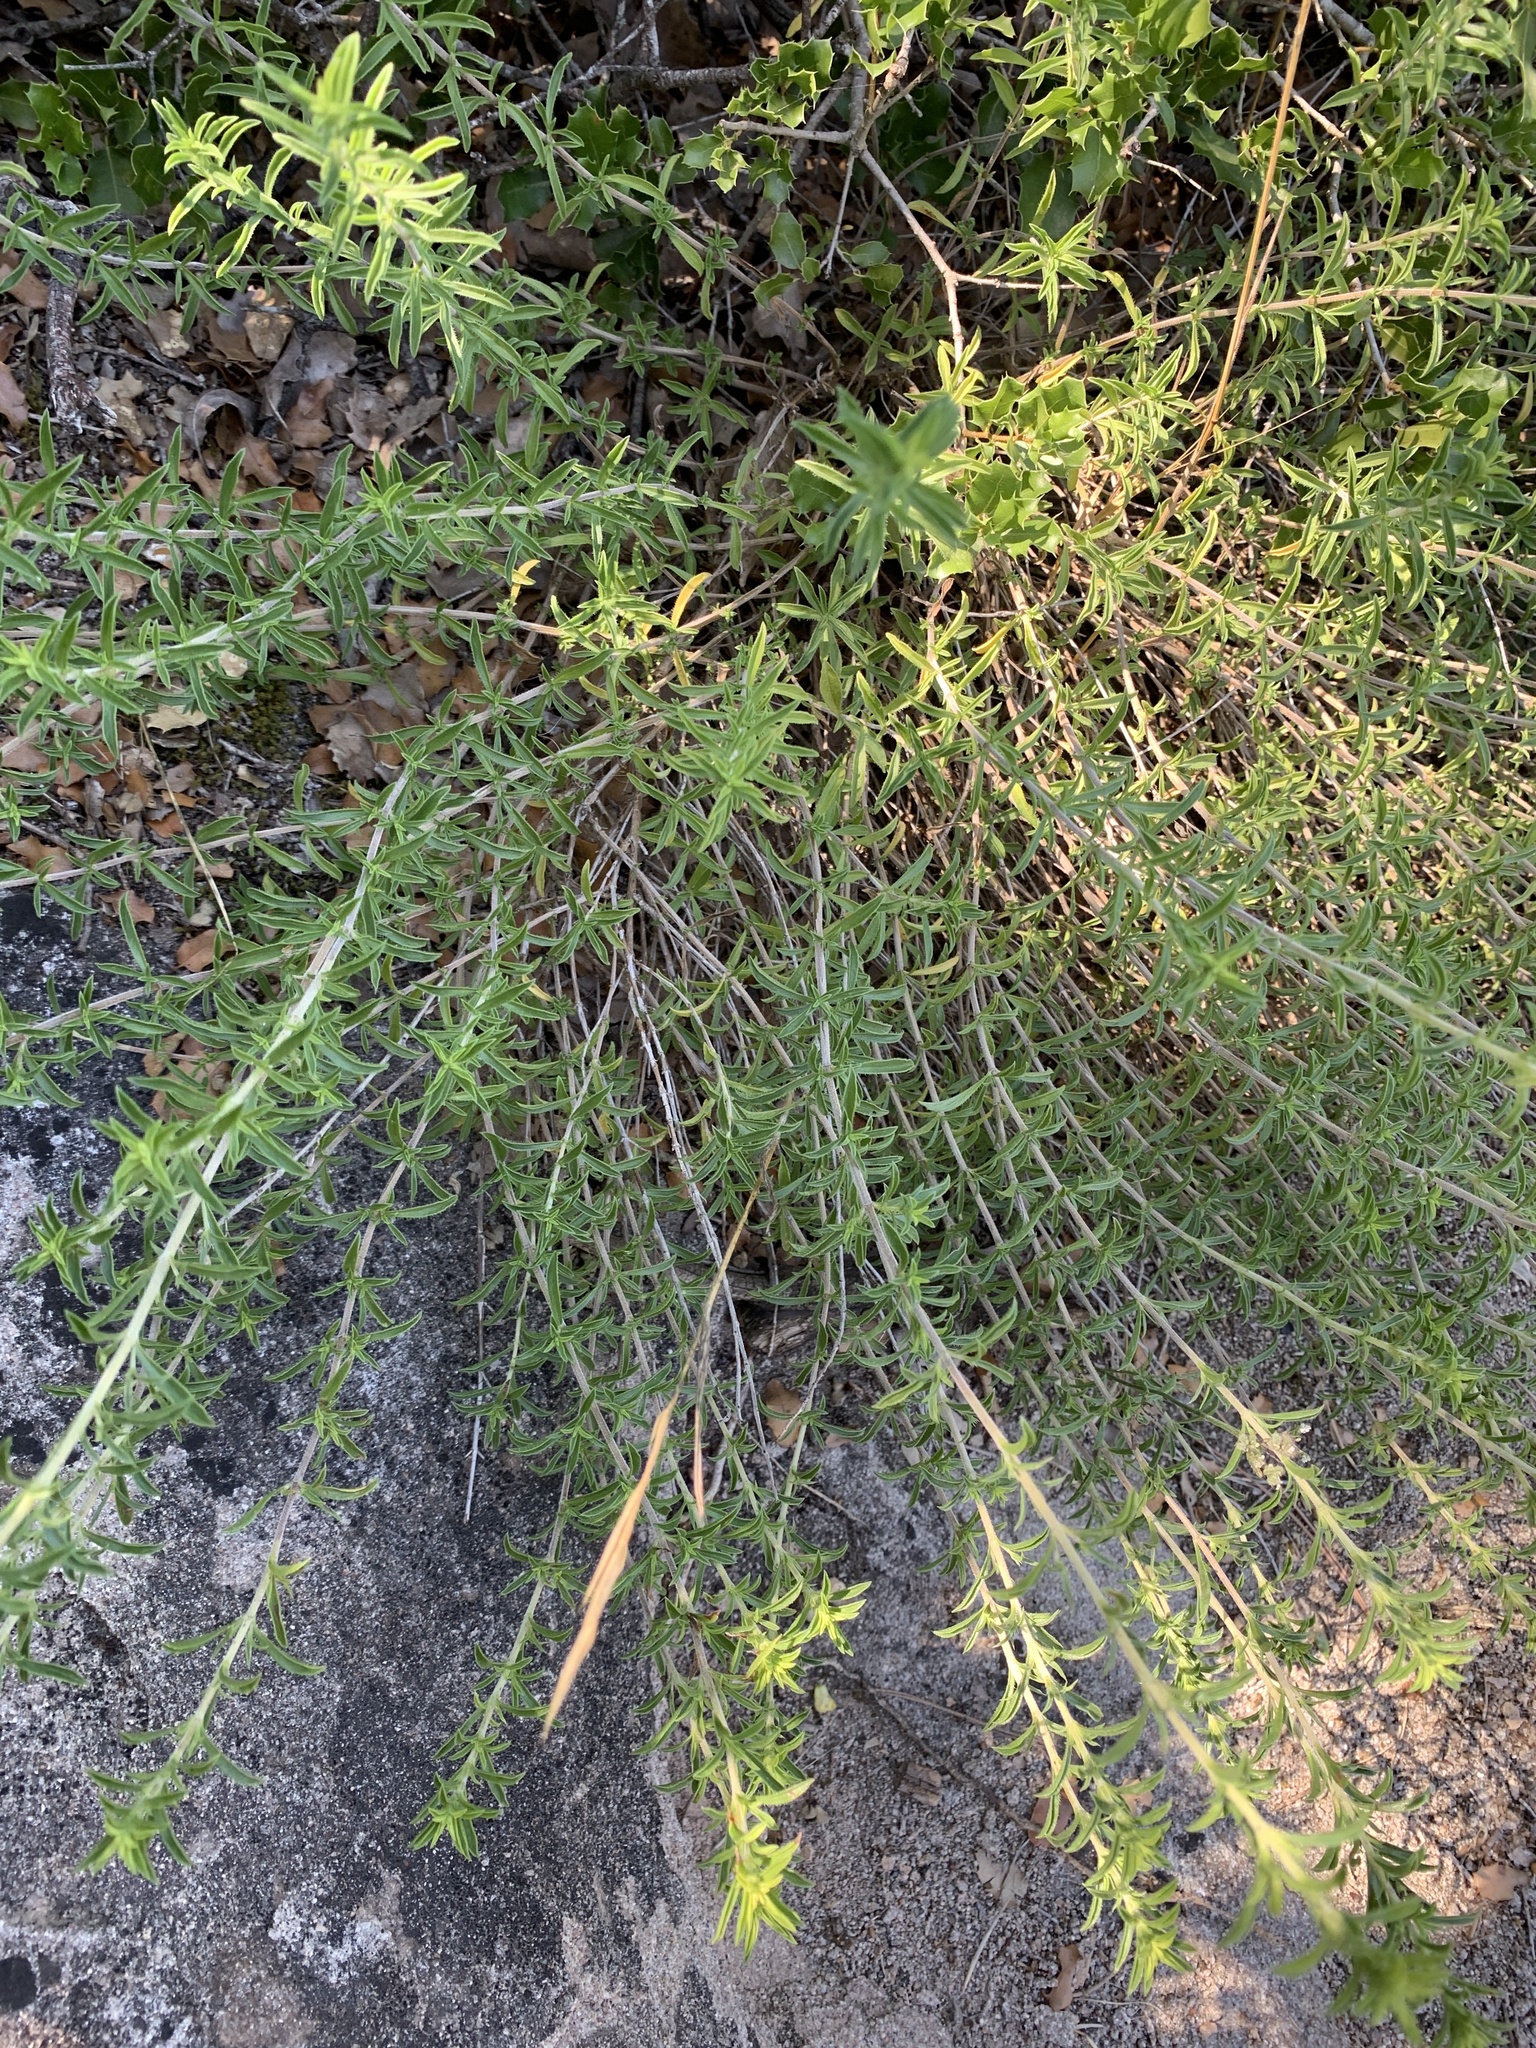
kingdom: Plantae
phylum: Tracheophyta
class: Magnoliopsida
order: Lamiales
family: Lamiaceae
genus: Satureja
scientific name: Satureja montana
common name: Winter savory
